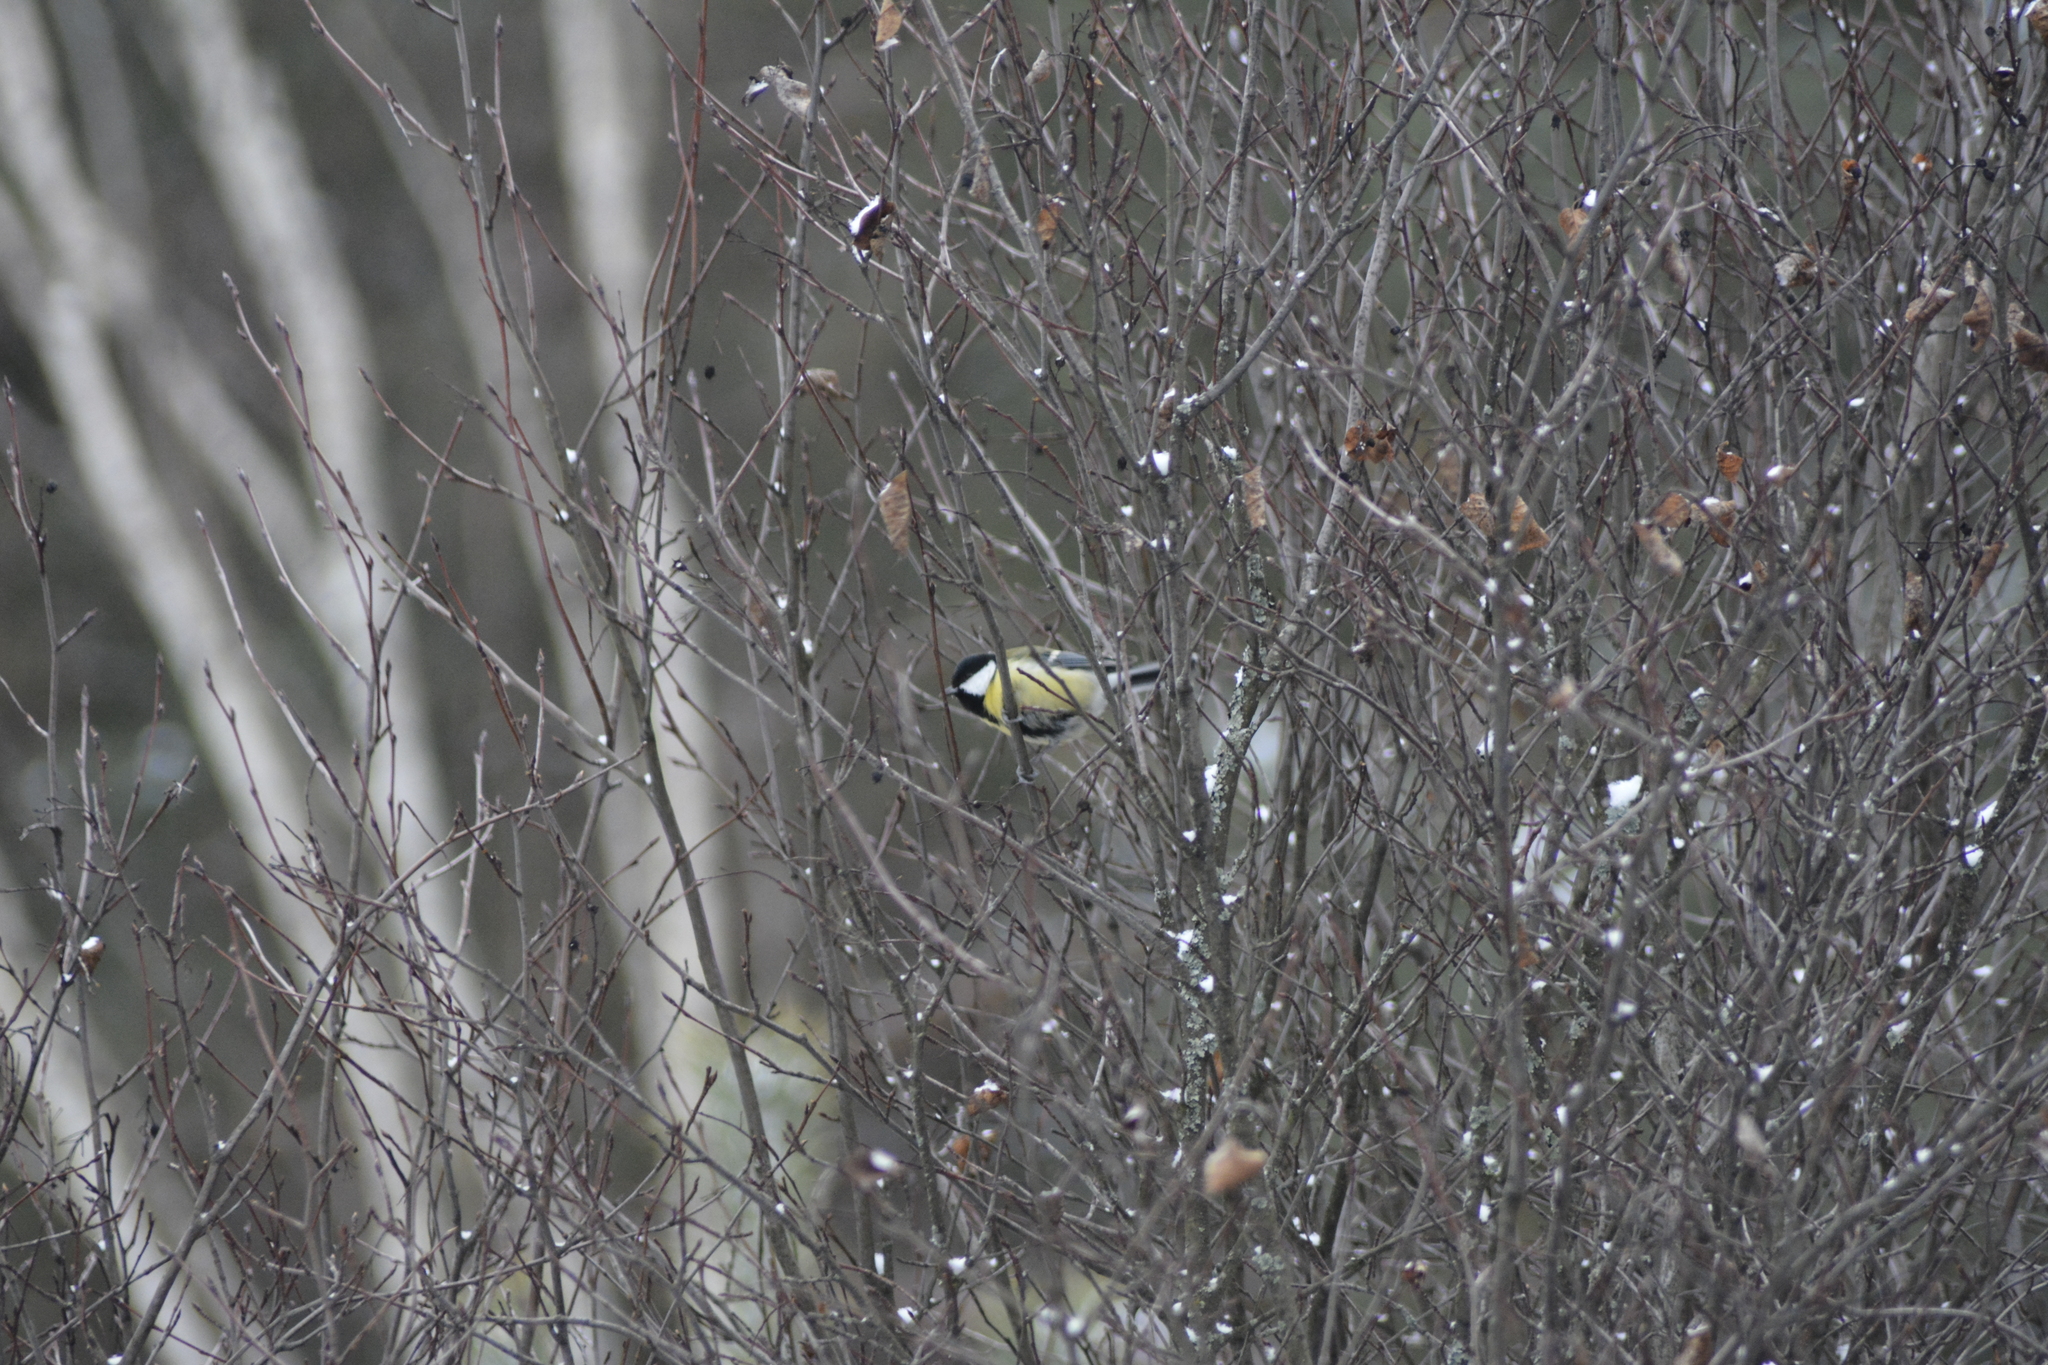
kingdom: Animalia
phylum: Chordata
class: Aves
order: Passeriformes
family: Paridae
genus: Parus
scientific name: Parus major
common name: Great tit
